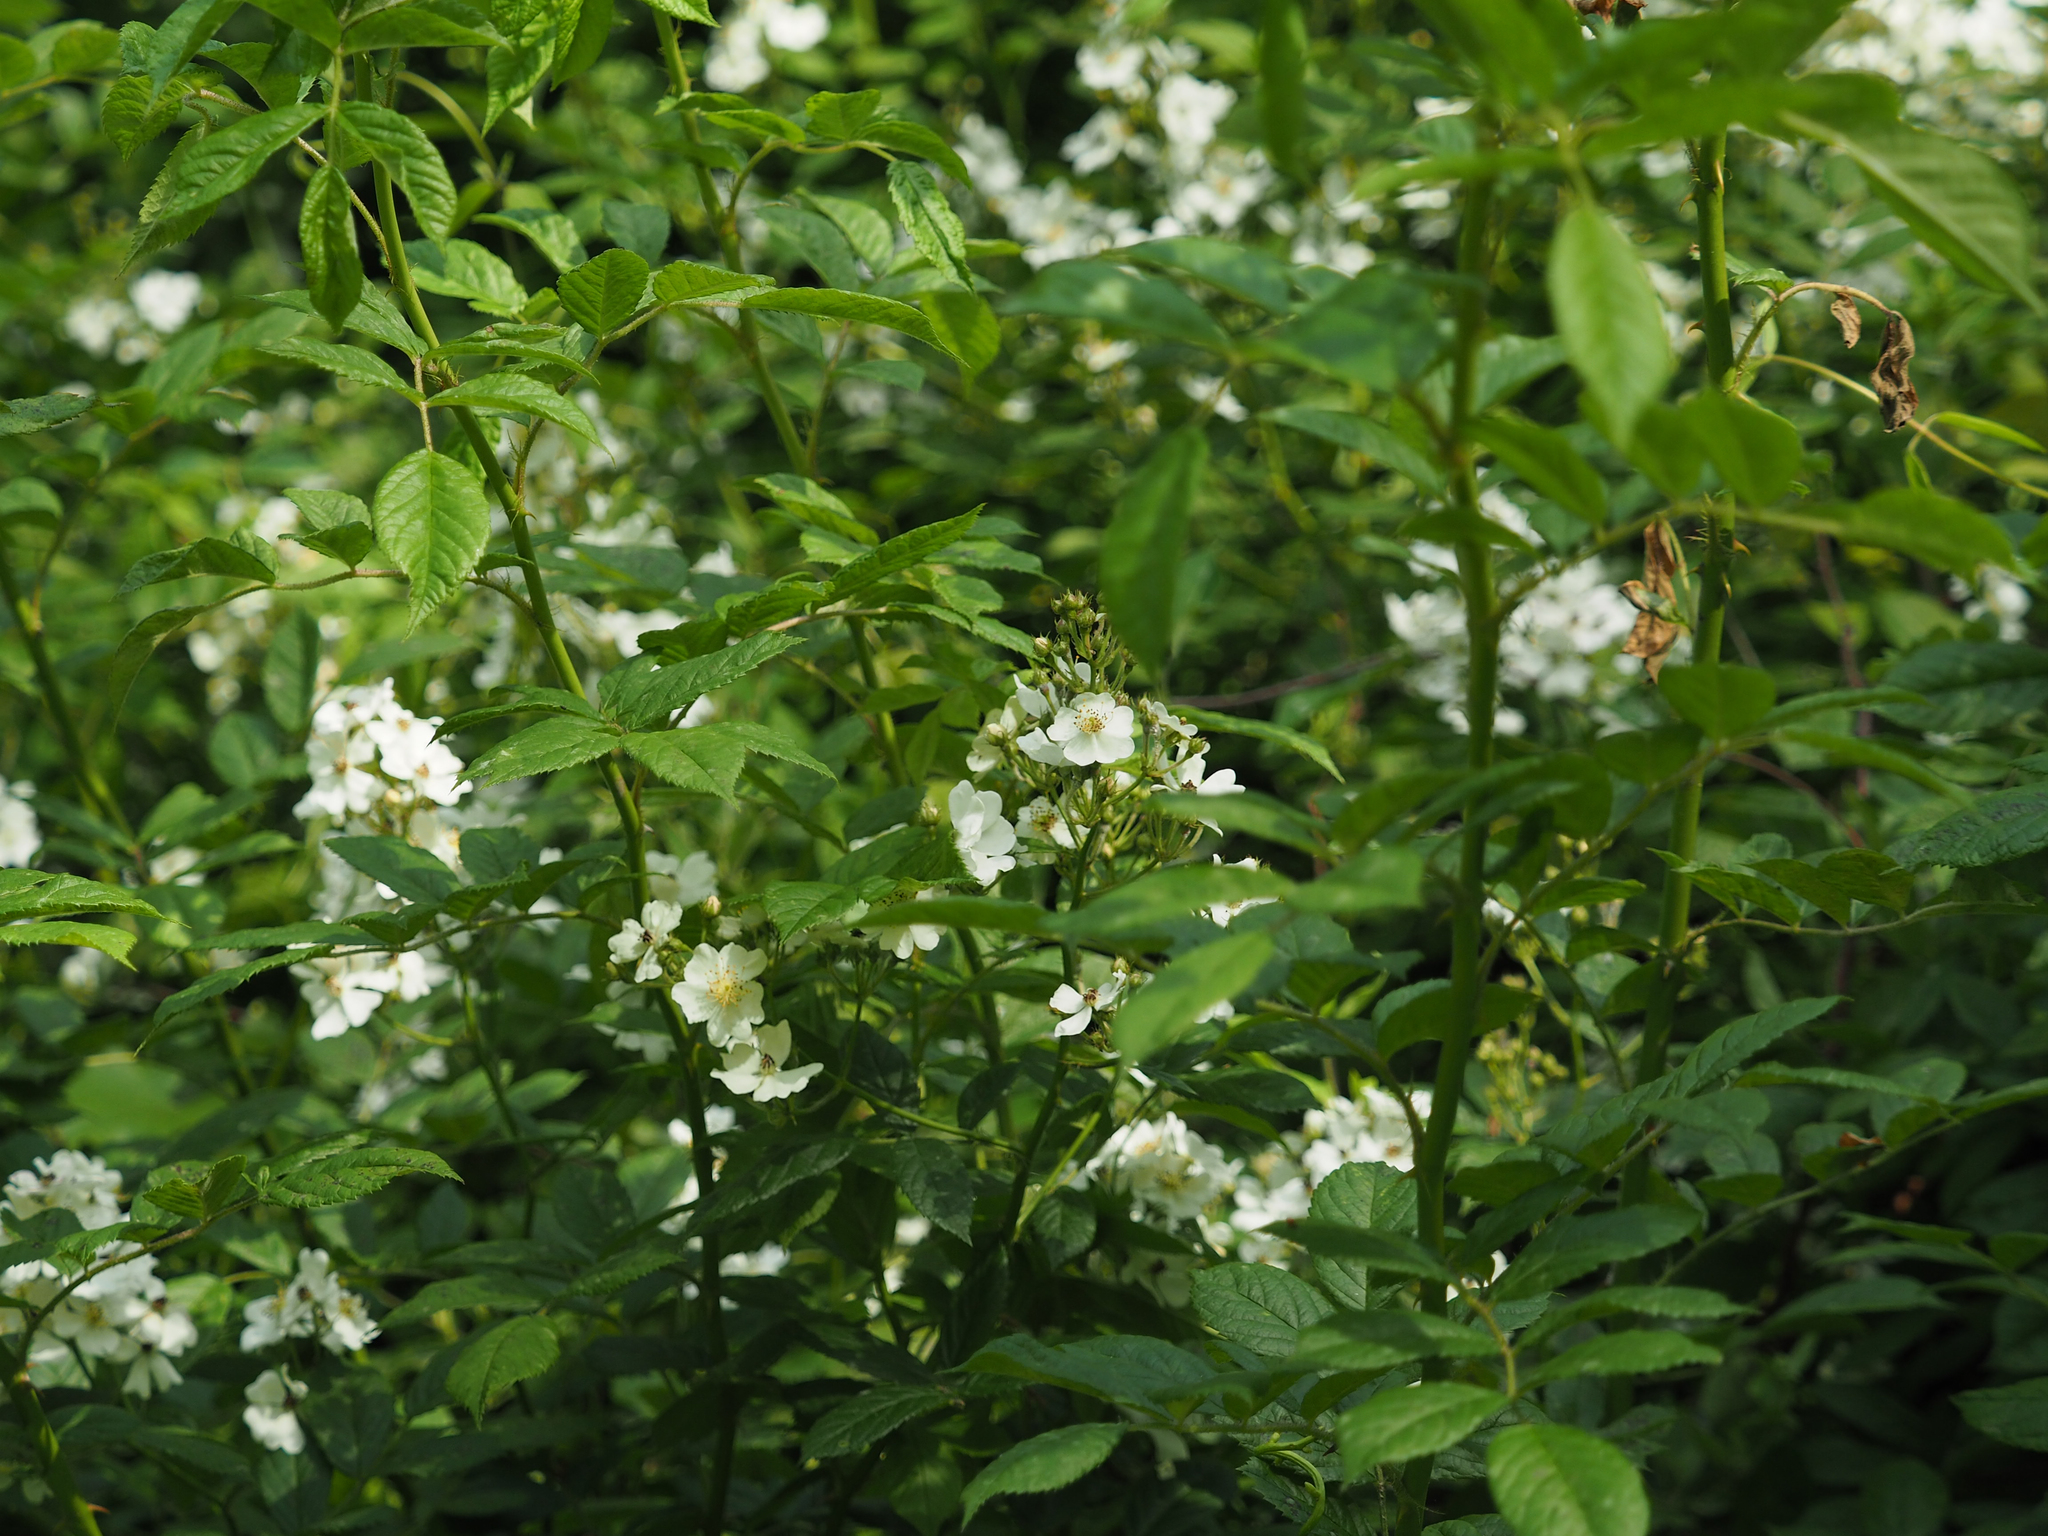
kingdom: Plantae
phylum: Tracheophyta
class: Magnoliopsida
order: Rosales
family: Rosaceae
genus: Rosa
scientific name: Rosa multiflora
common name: Multiflora rose
